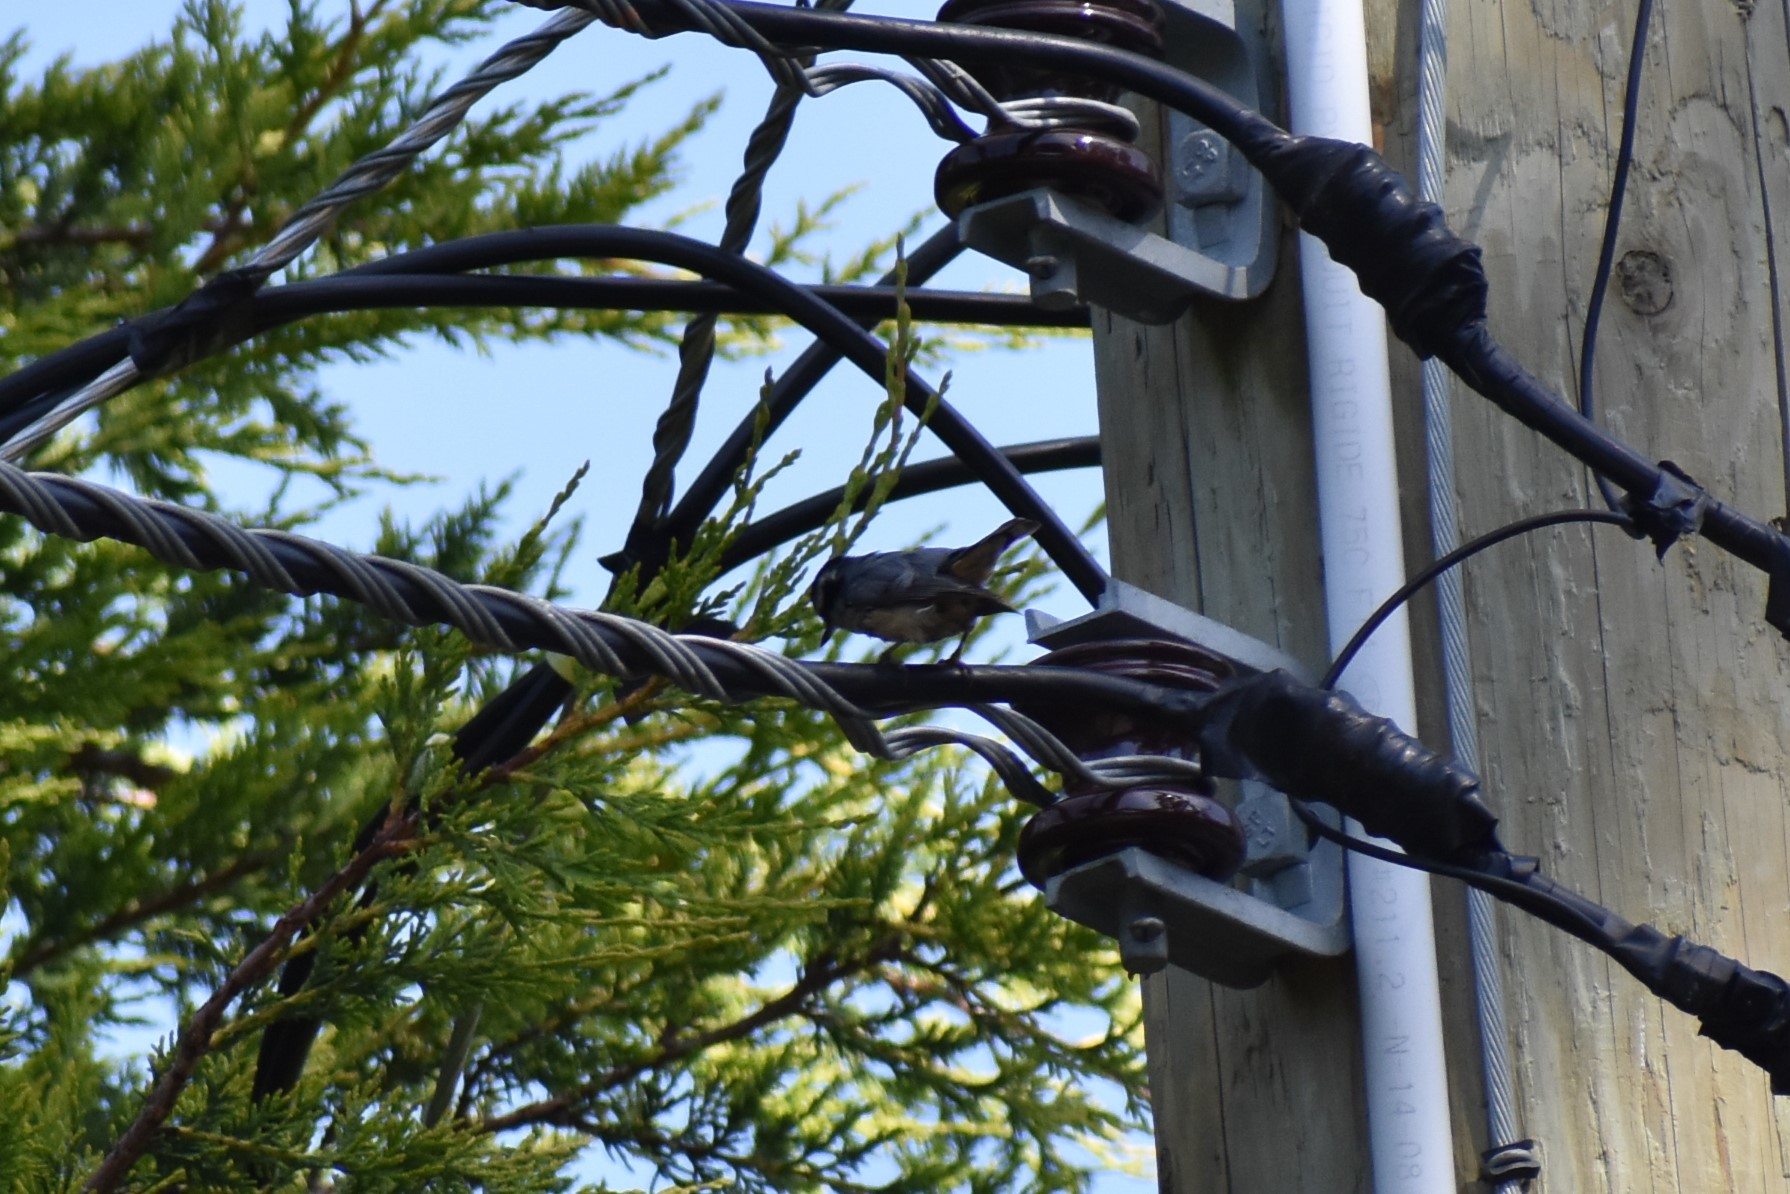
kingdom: Animalia
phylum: Chordata
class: Aves
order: Passeriformes
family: Sittidae
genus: Sitta
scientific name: Sitta canadensis
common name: Red-breasted nuthatch
